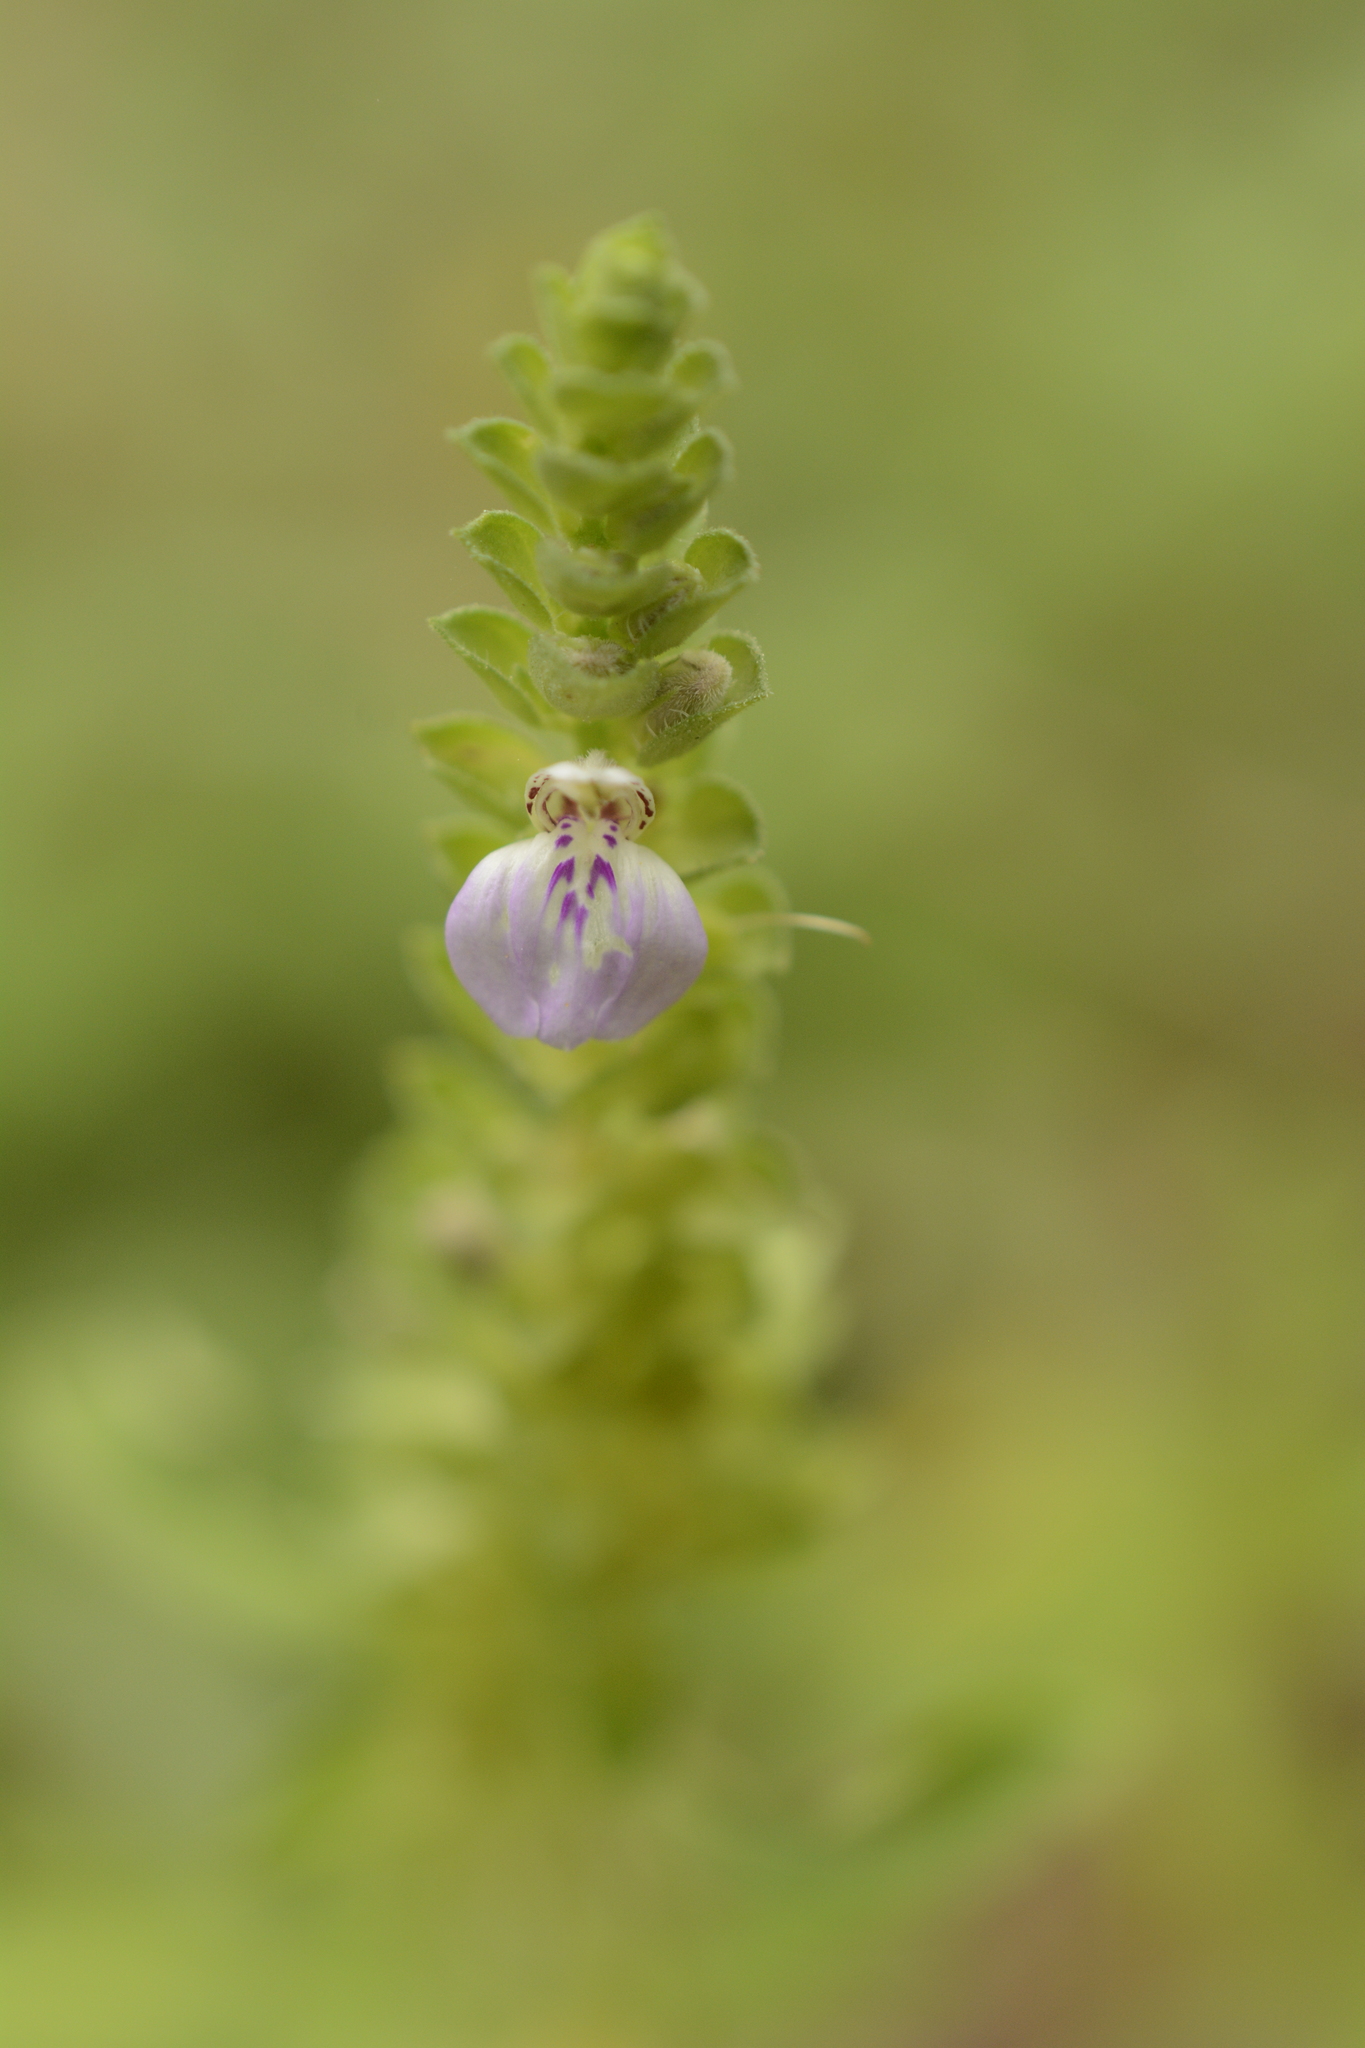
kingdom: Plantae
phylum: Tracheophyta
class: Magnoliopsida
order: Lamiales
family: Acanthaceae
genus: Justicia
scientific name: Justicia glauca
